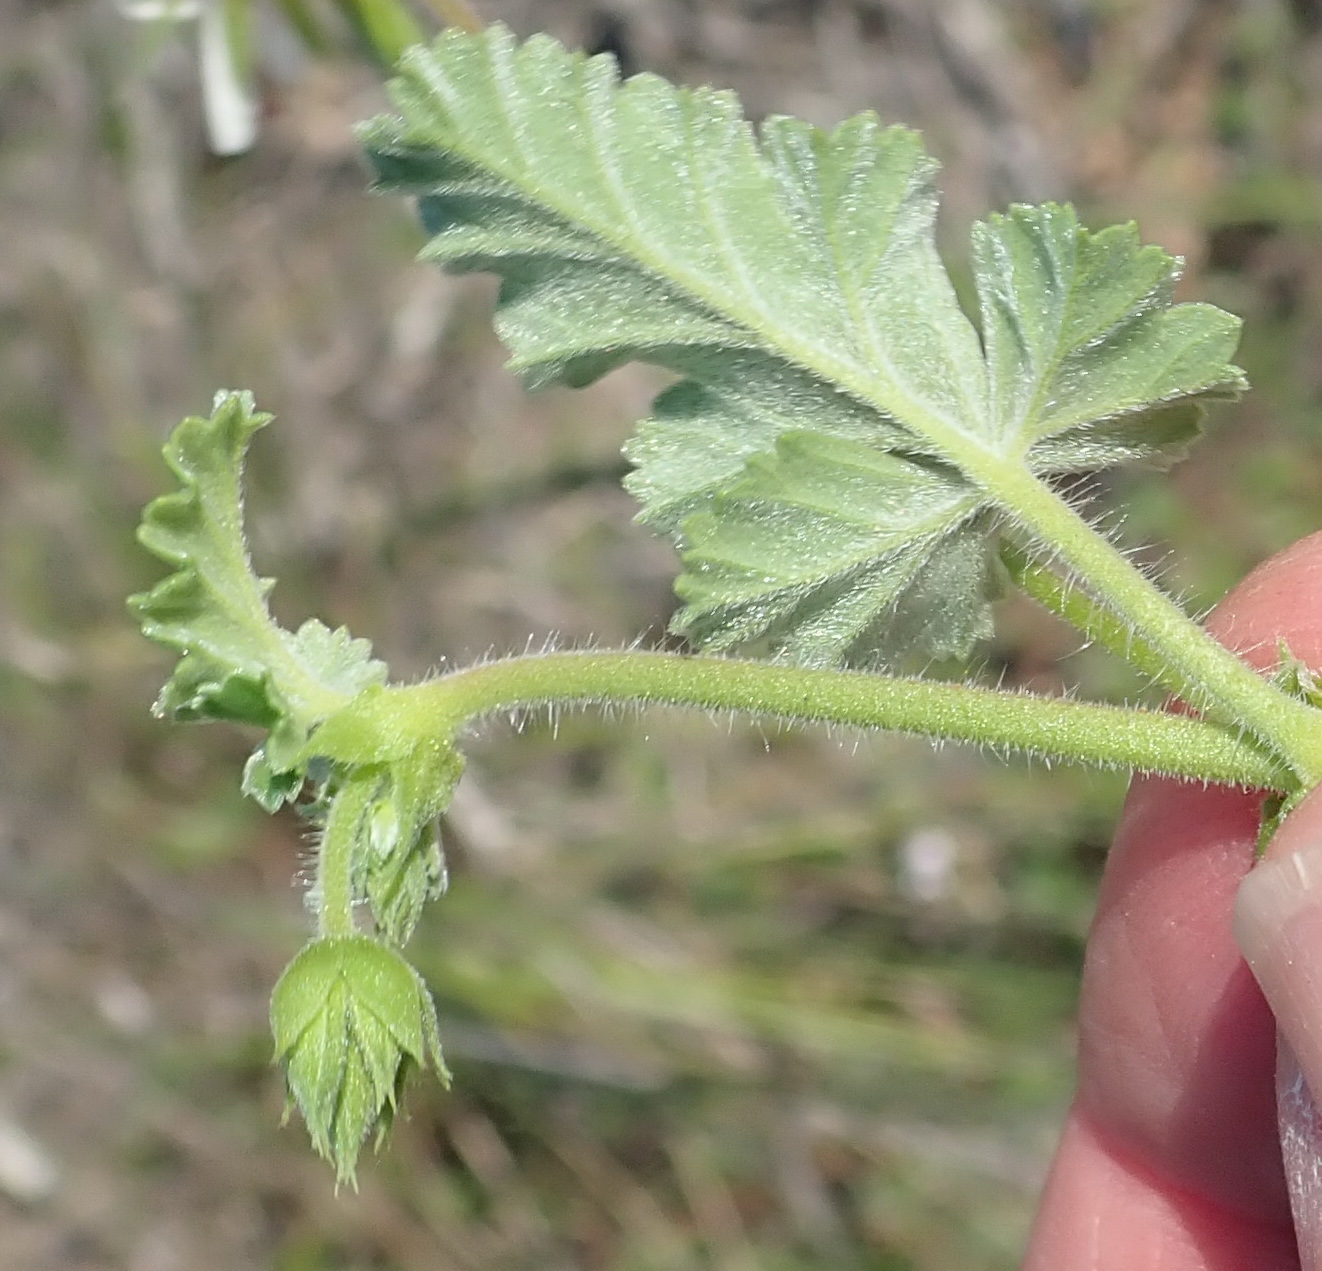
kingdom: Plantae
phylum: Tracheophyta
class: Magnoliopsida
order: Geraniales
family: Geraniaceae
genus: Pelargonium
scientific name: Pelargonium candicans
